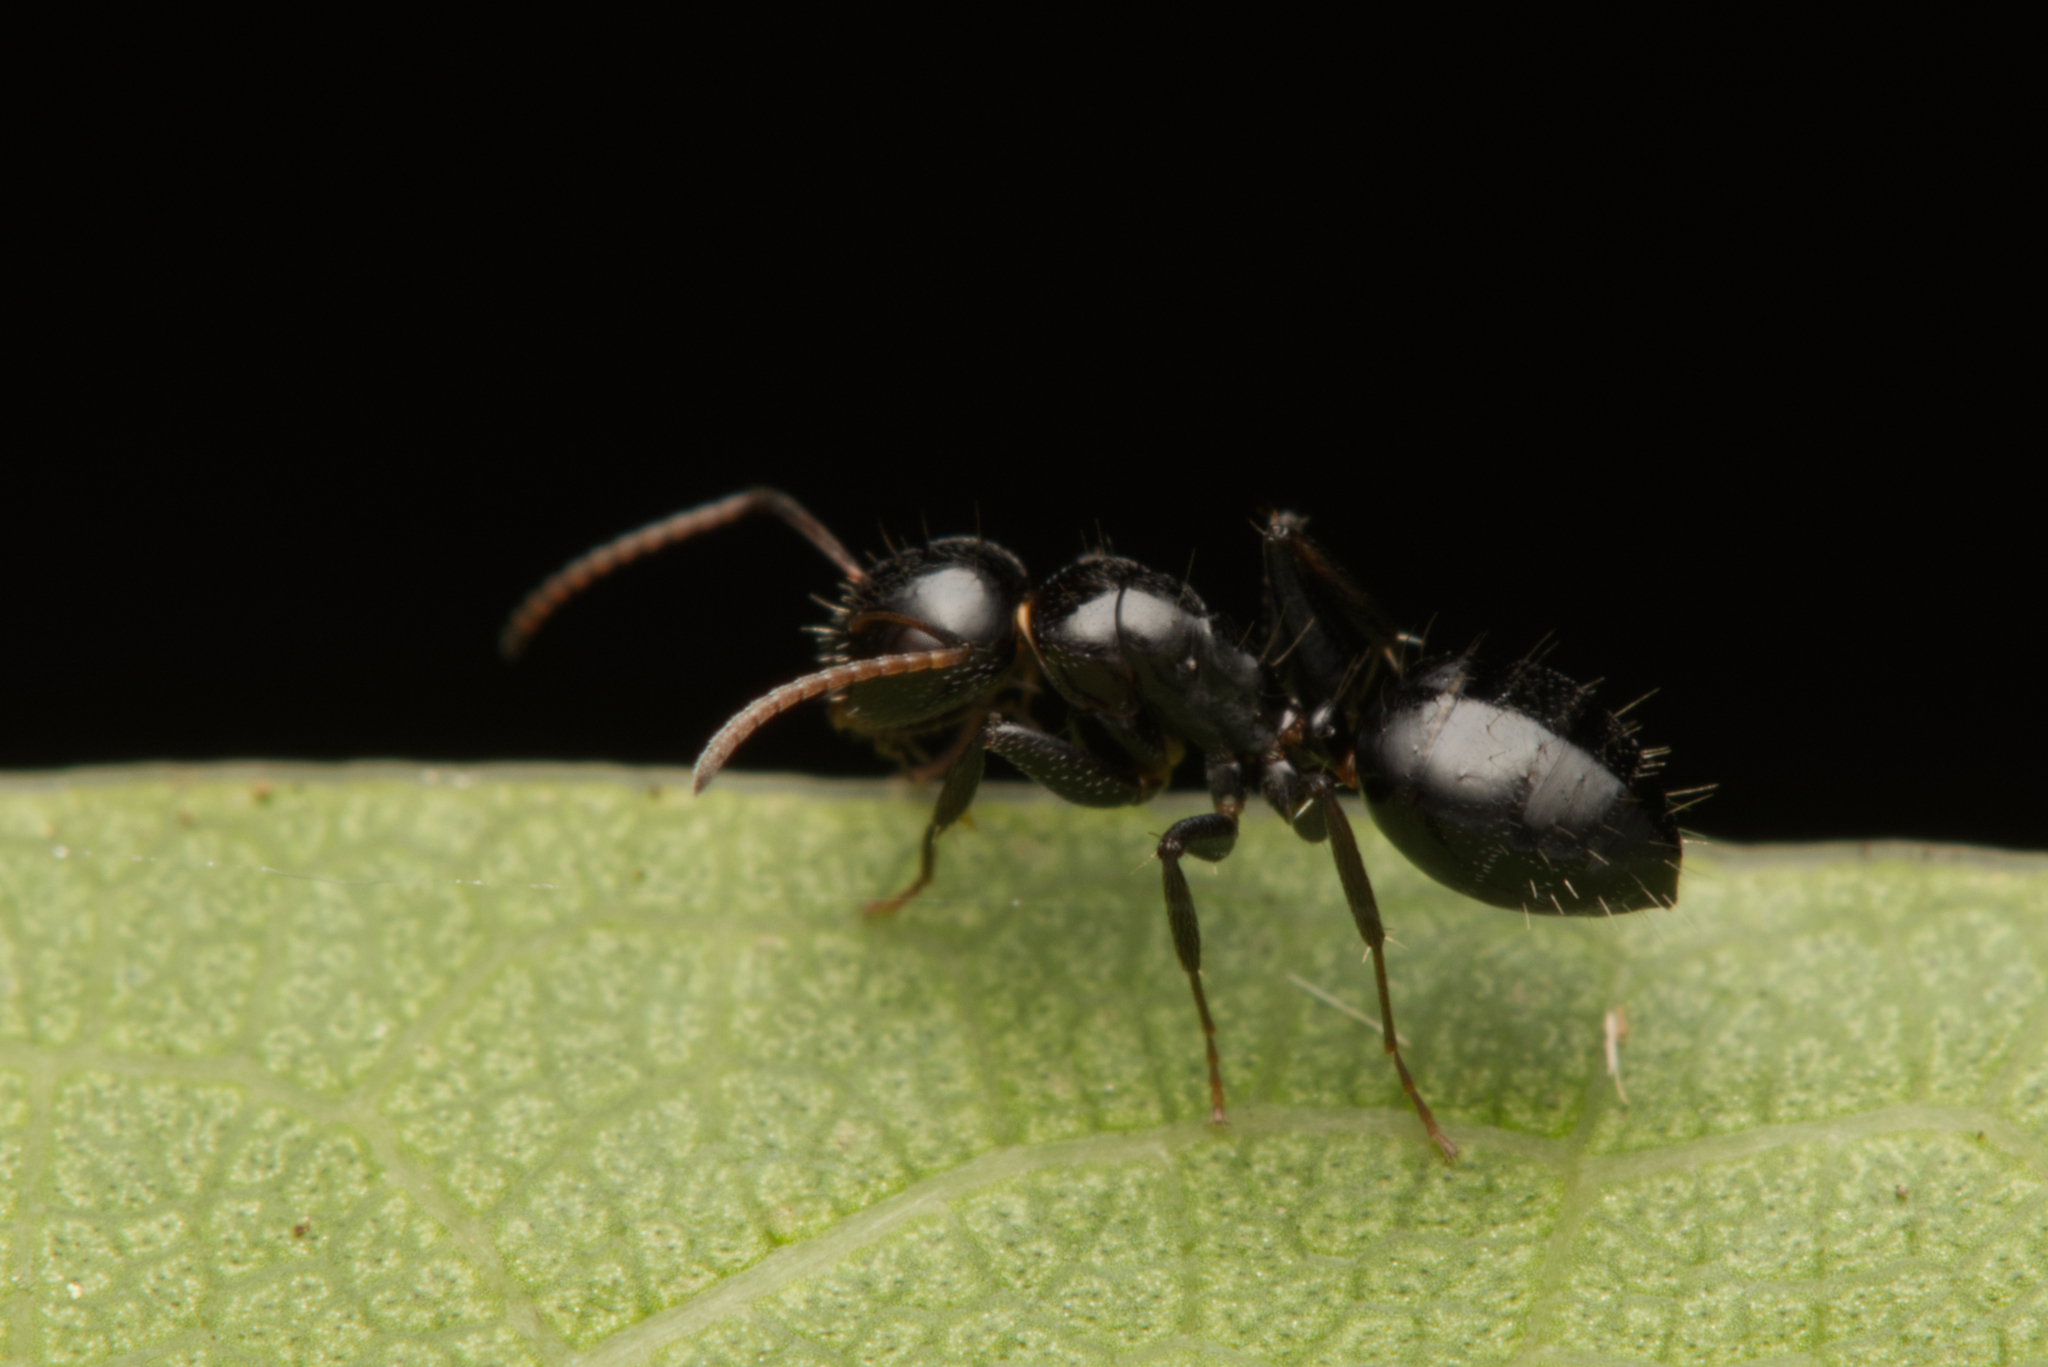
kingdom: Animalia
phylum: Arthropoda
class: Insecta
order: Hymenoptera
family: Formicidae
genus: Camponotus
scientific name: Camponotus mackayensis
